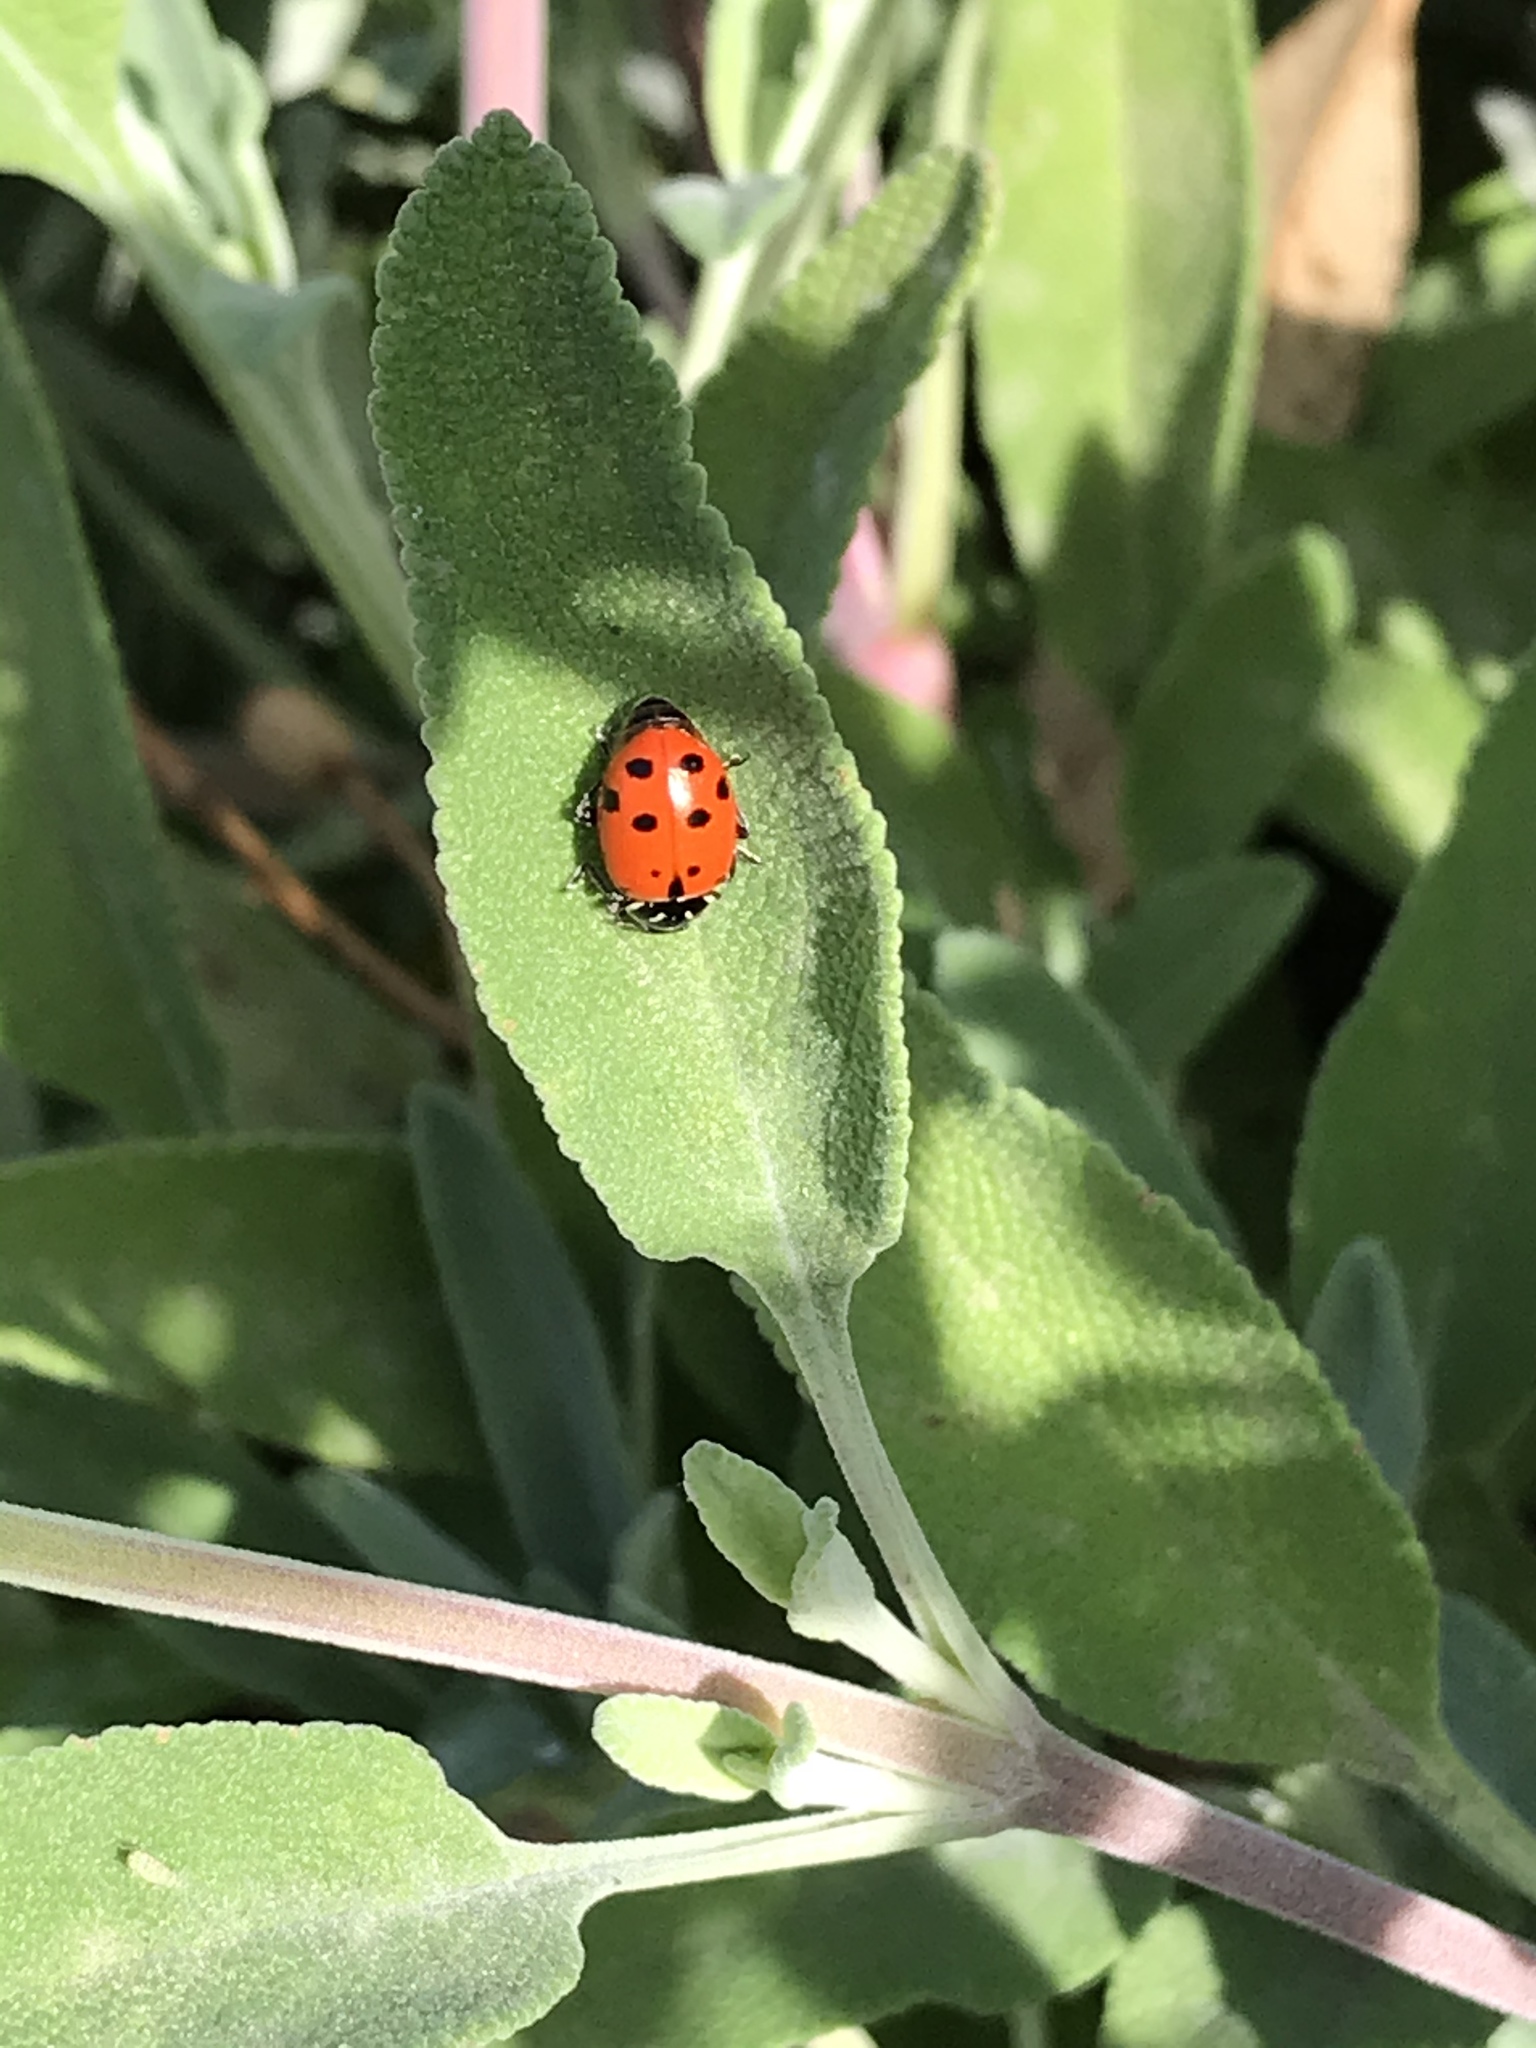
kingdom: Animalia
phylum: Arthropoda
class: Insecta
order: Coleoptera
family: Coccinellidae
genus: Hippodamia
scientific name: Hippodamia convergens
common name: Convergent lady beetle
